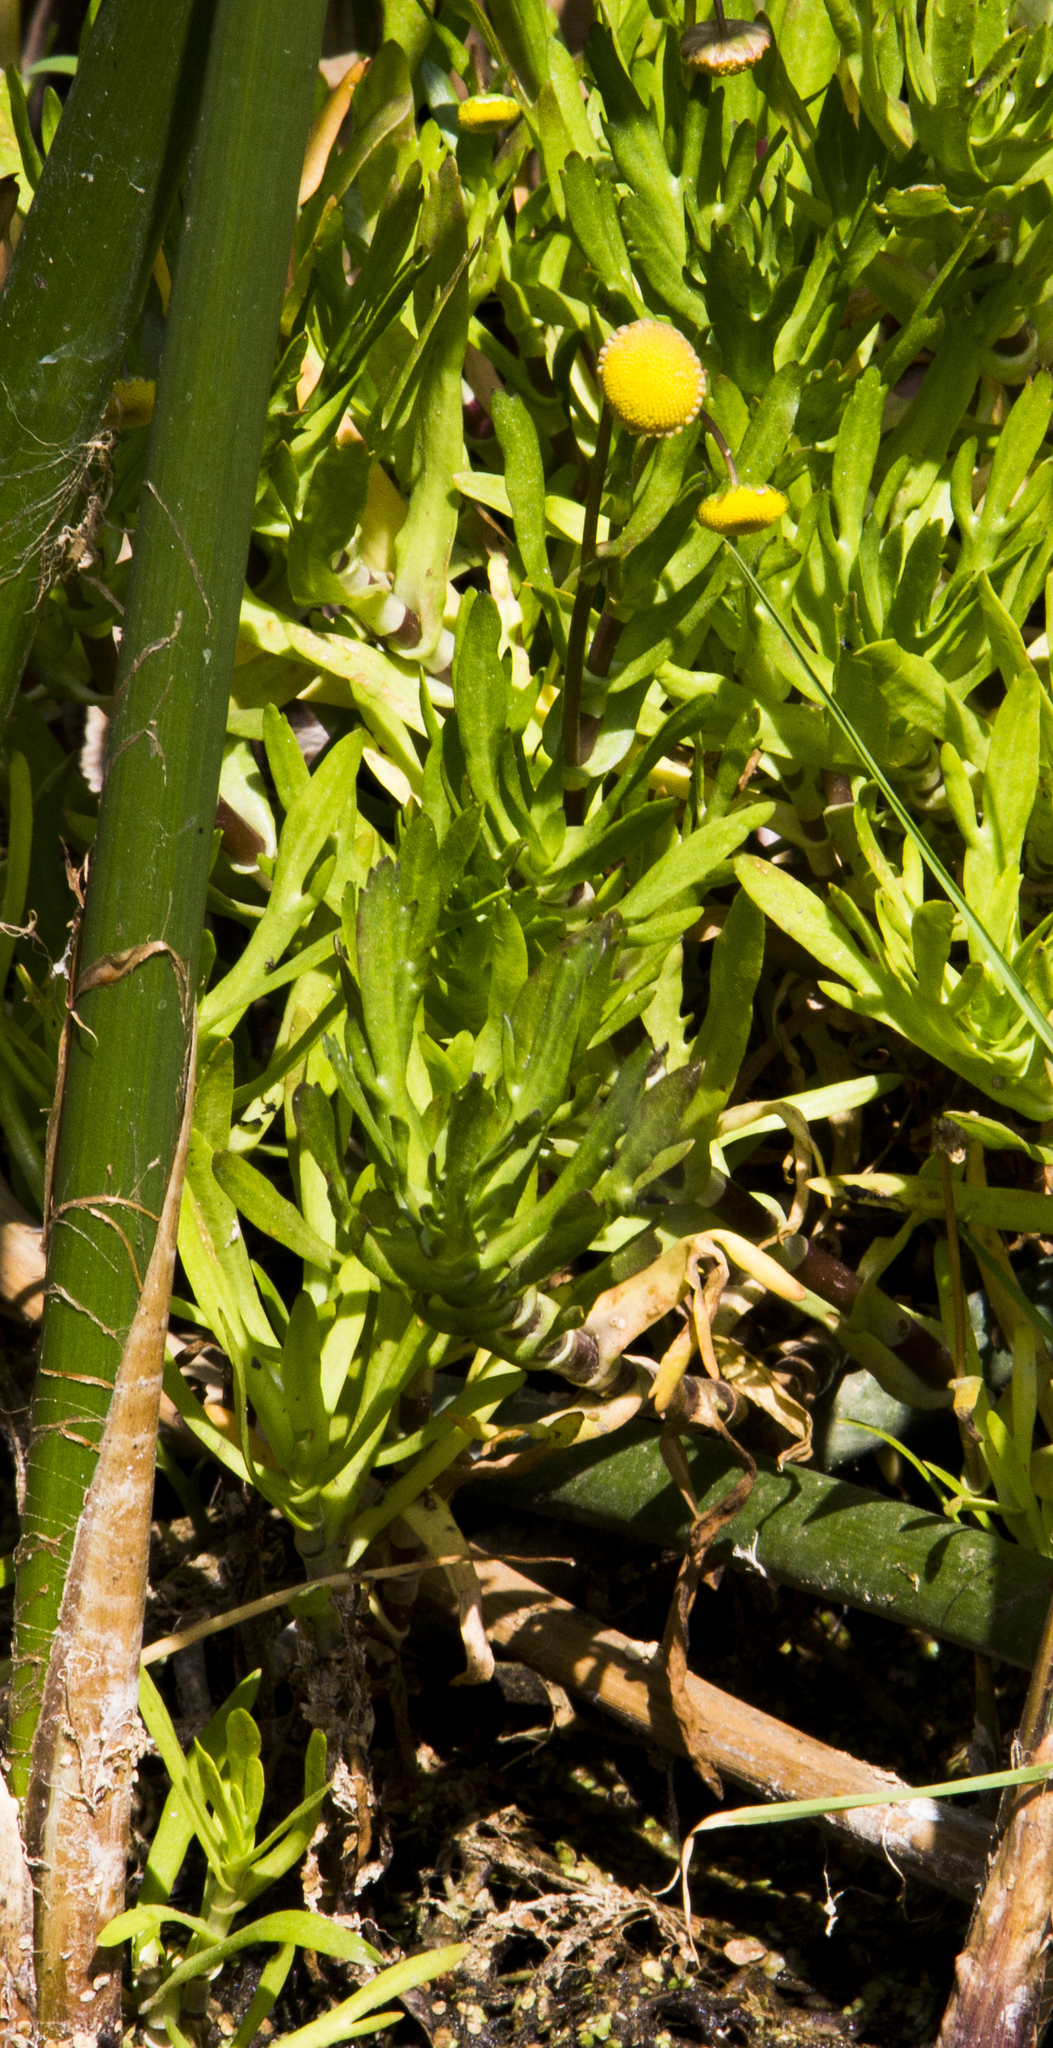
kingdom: Plantae
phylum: Tracheophyta
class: Magnoliopsida
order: Asterales
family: Asteraceae
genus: Cotula
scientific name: Cotula coronopifolia
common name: Buttonweed
